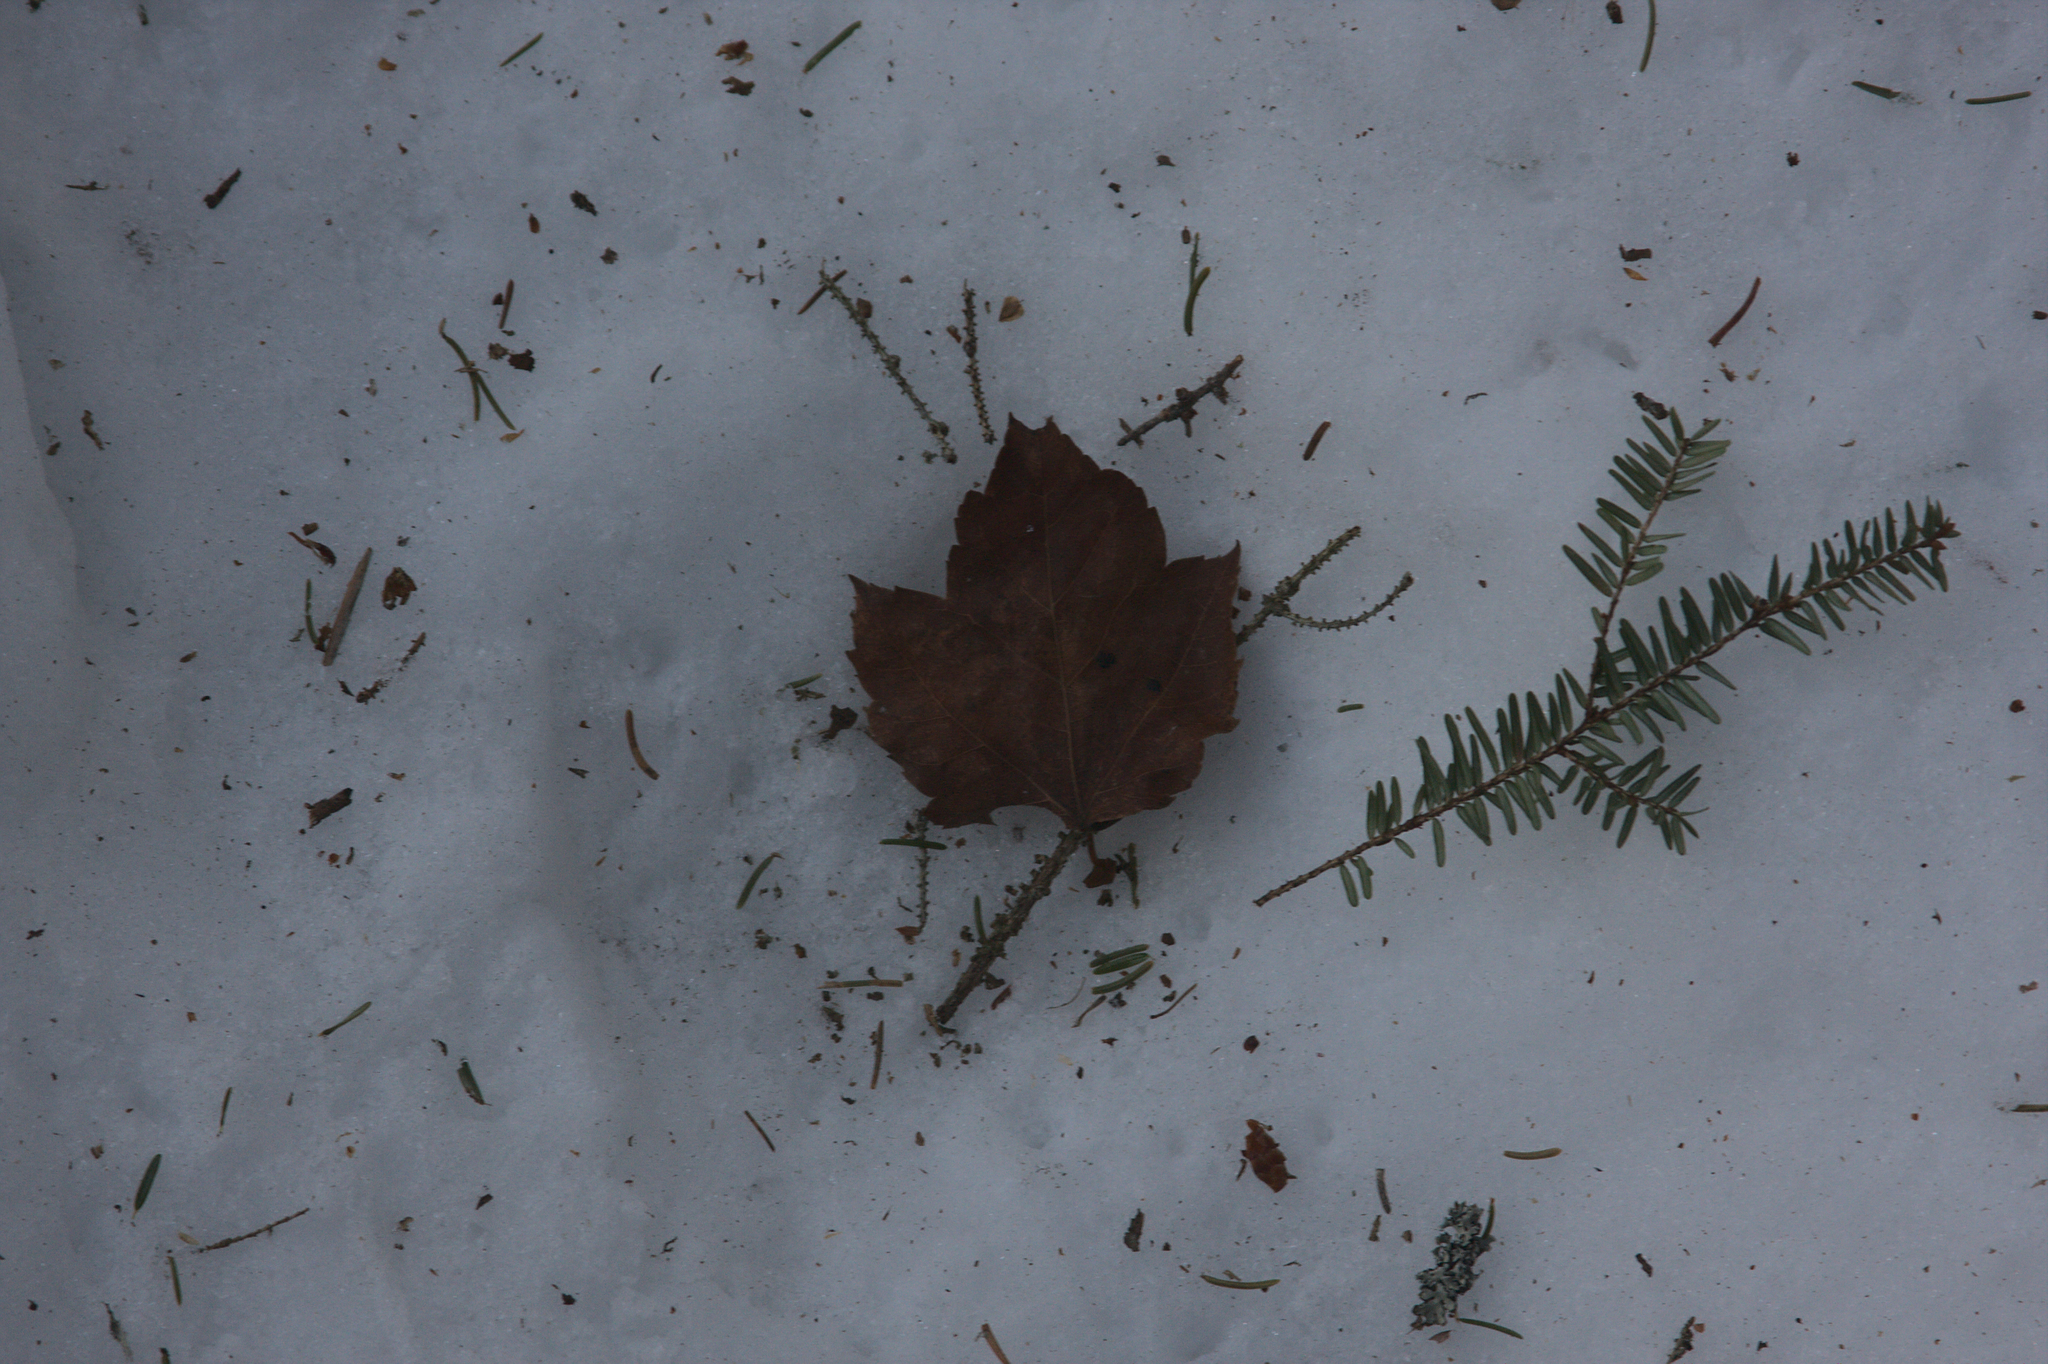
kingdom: Plantae
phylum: Tracheophyta
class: Magnoliopsida
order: Sapindales
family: Sapindaceae
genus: Acer
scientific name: Acer rubrum
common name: Red maple
